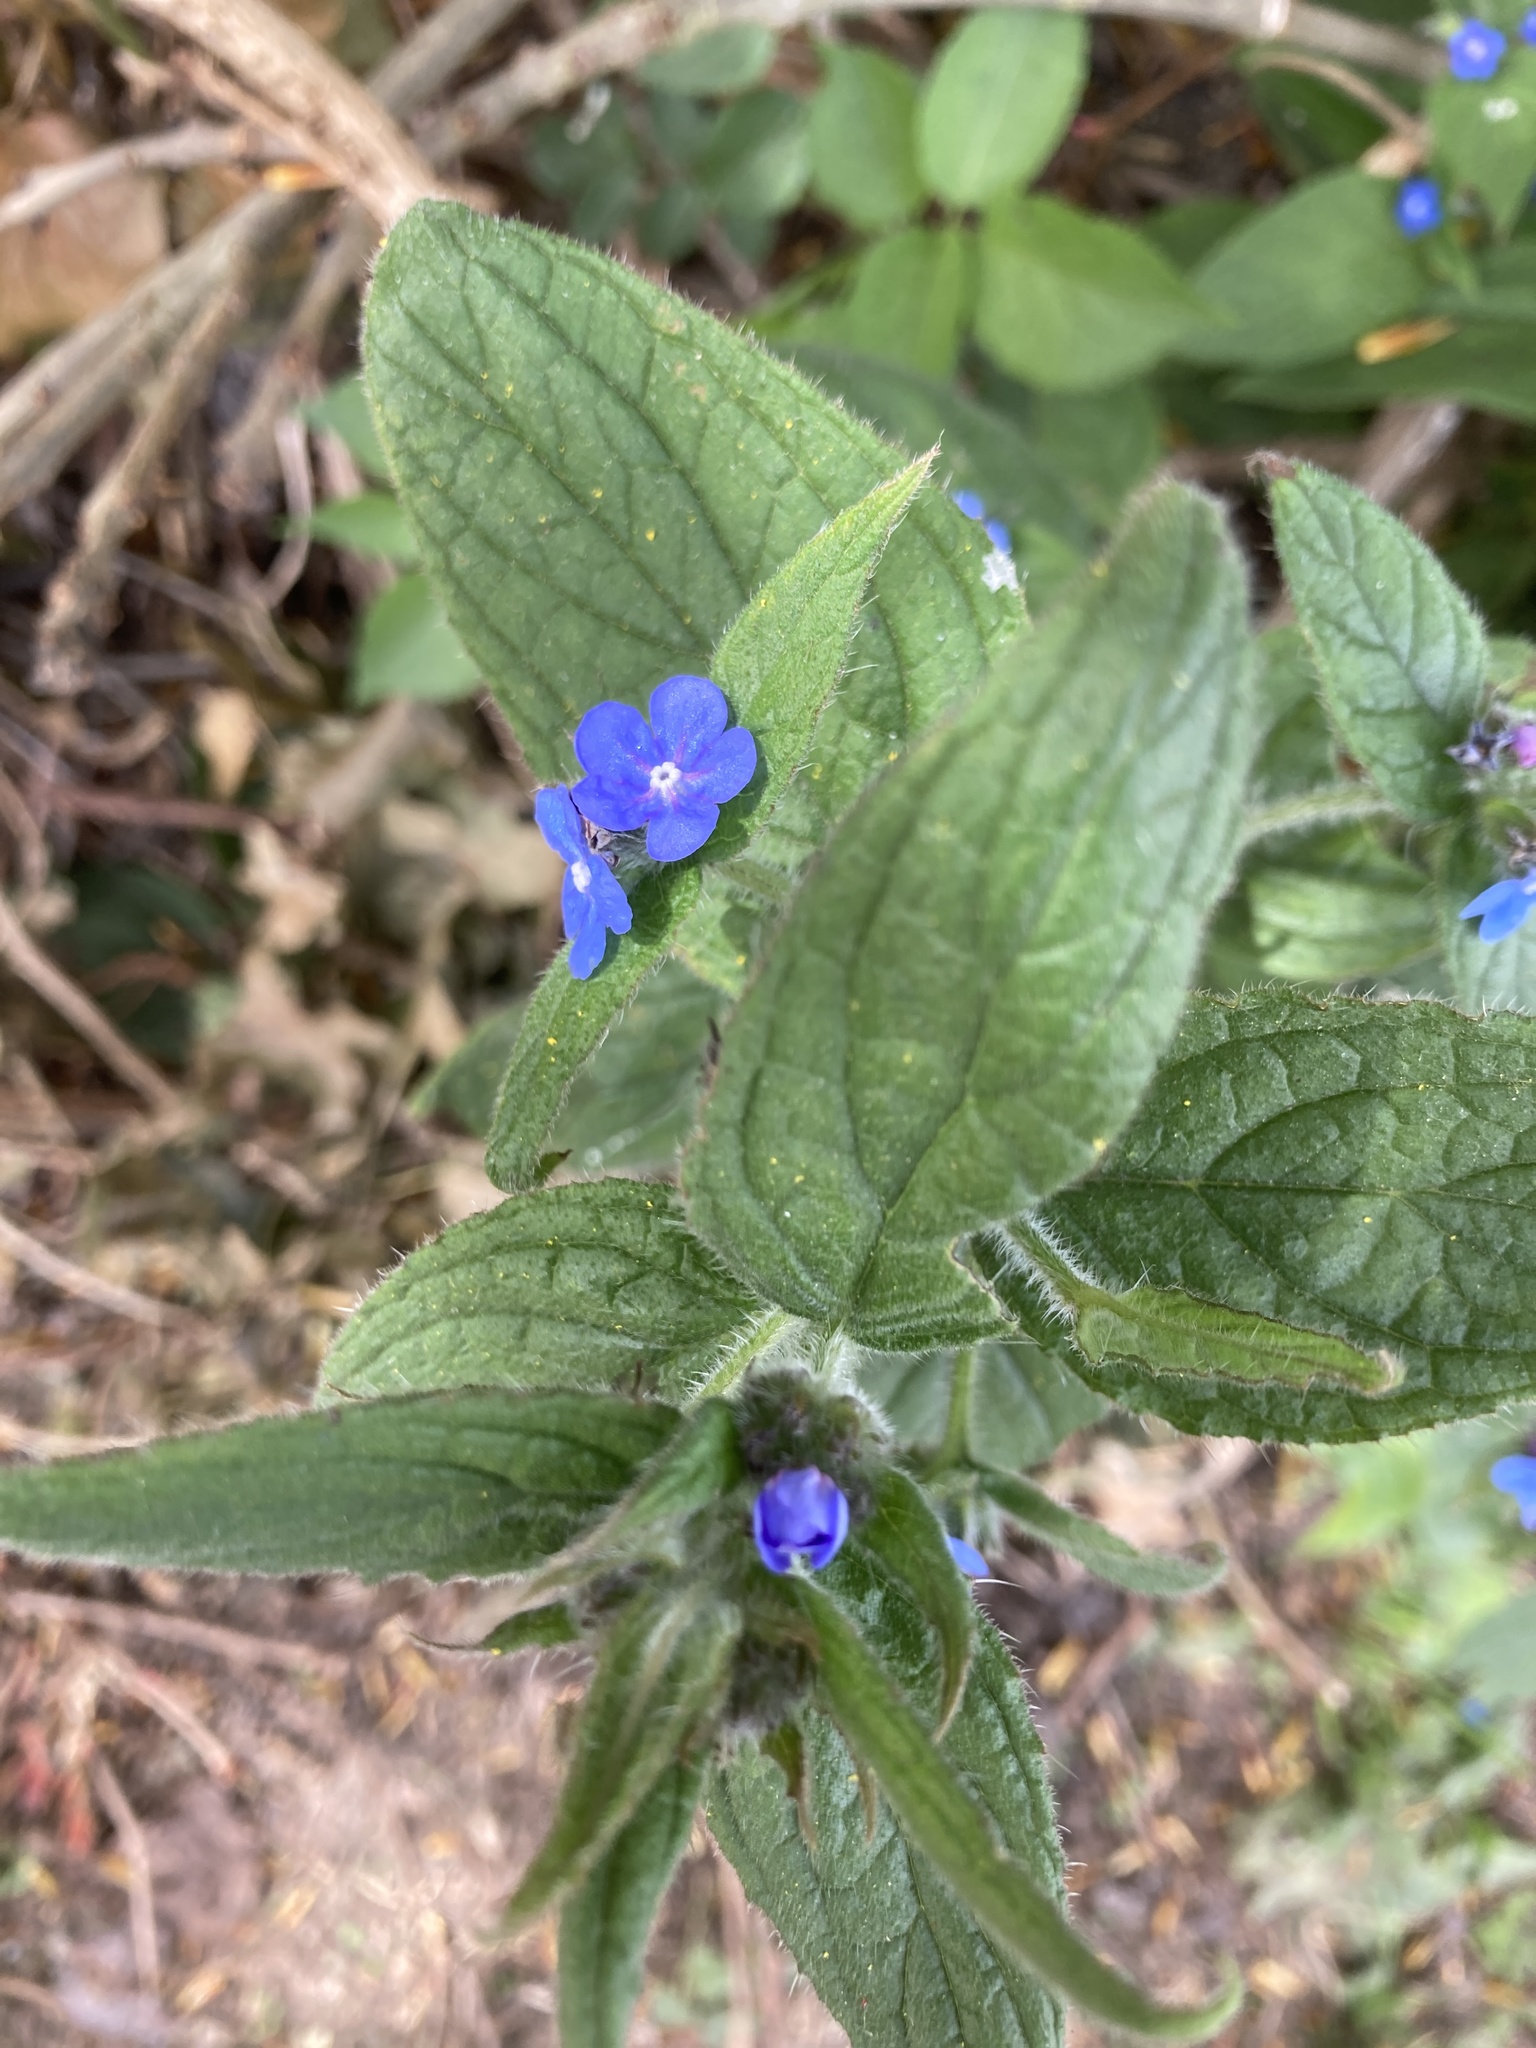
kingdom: Plantae
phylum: Tracheophyta
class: Magnoliopsida
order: Boraginales
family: Boraginaceae
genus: Pentaglottis
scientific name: Pentaglottis sempervirens
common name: Green alkanet
